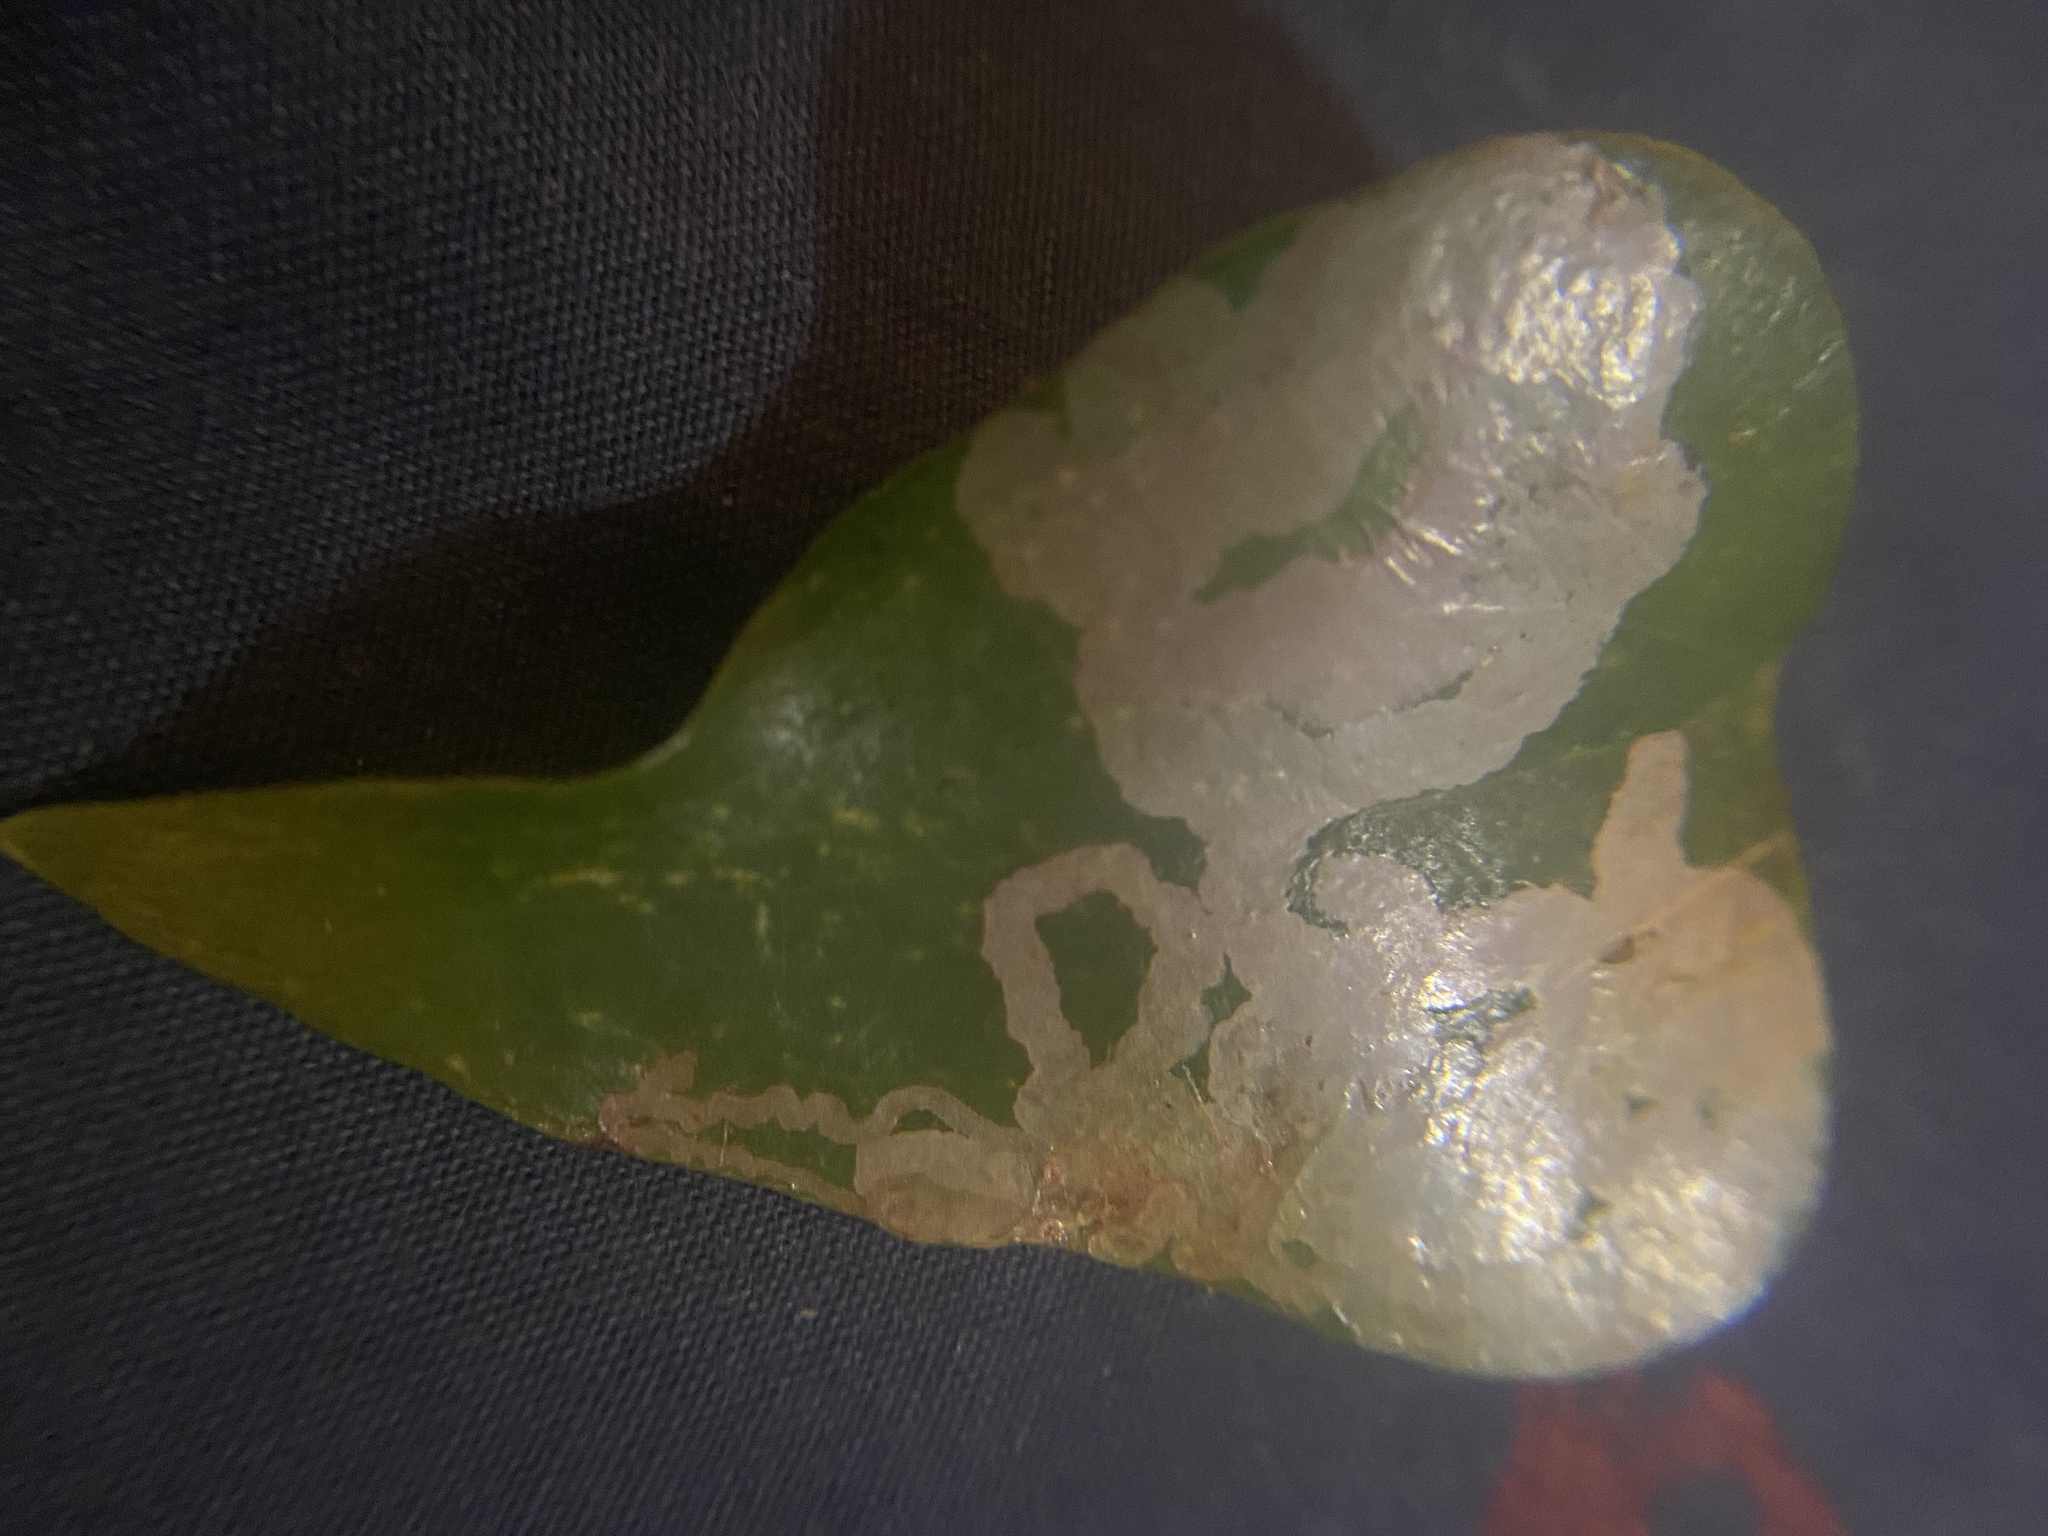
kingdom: Animalia
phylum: Arthropoda
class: Insecta
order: Diptera
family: Agromyzidae
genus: Liriomyza
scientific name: Liriomyza schmidti
